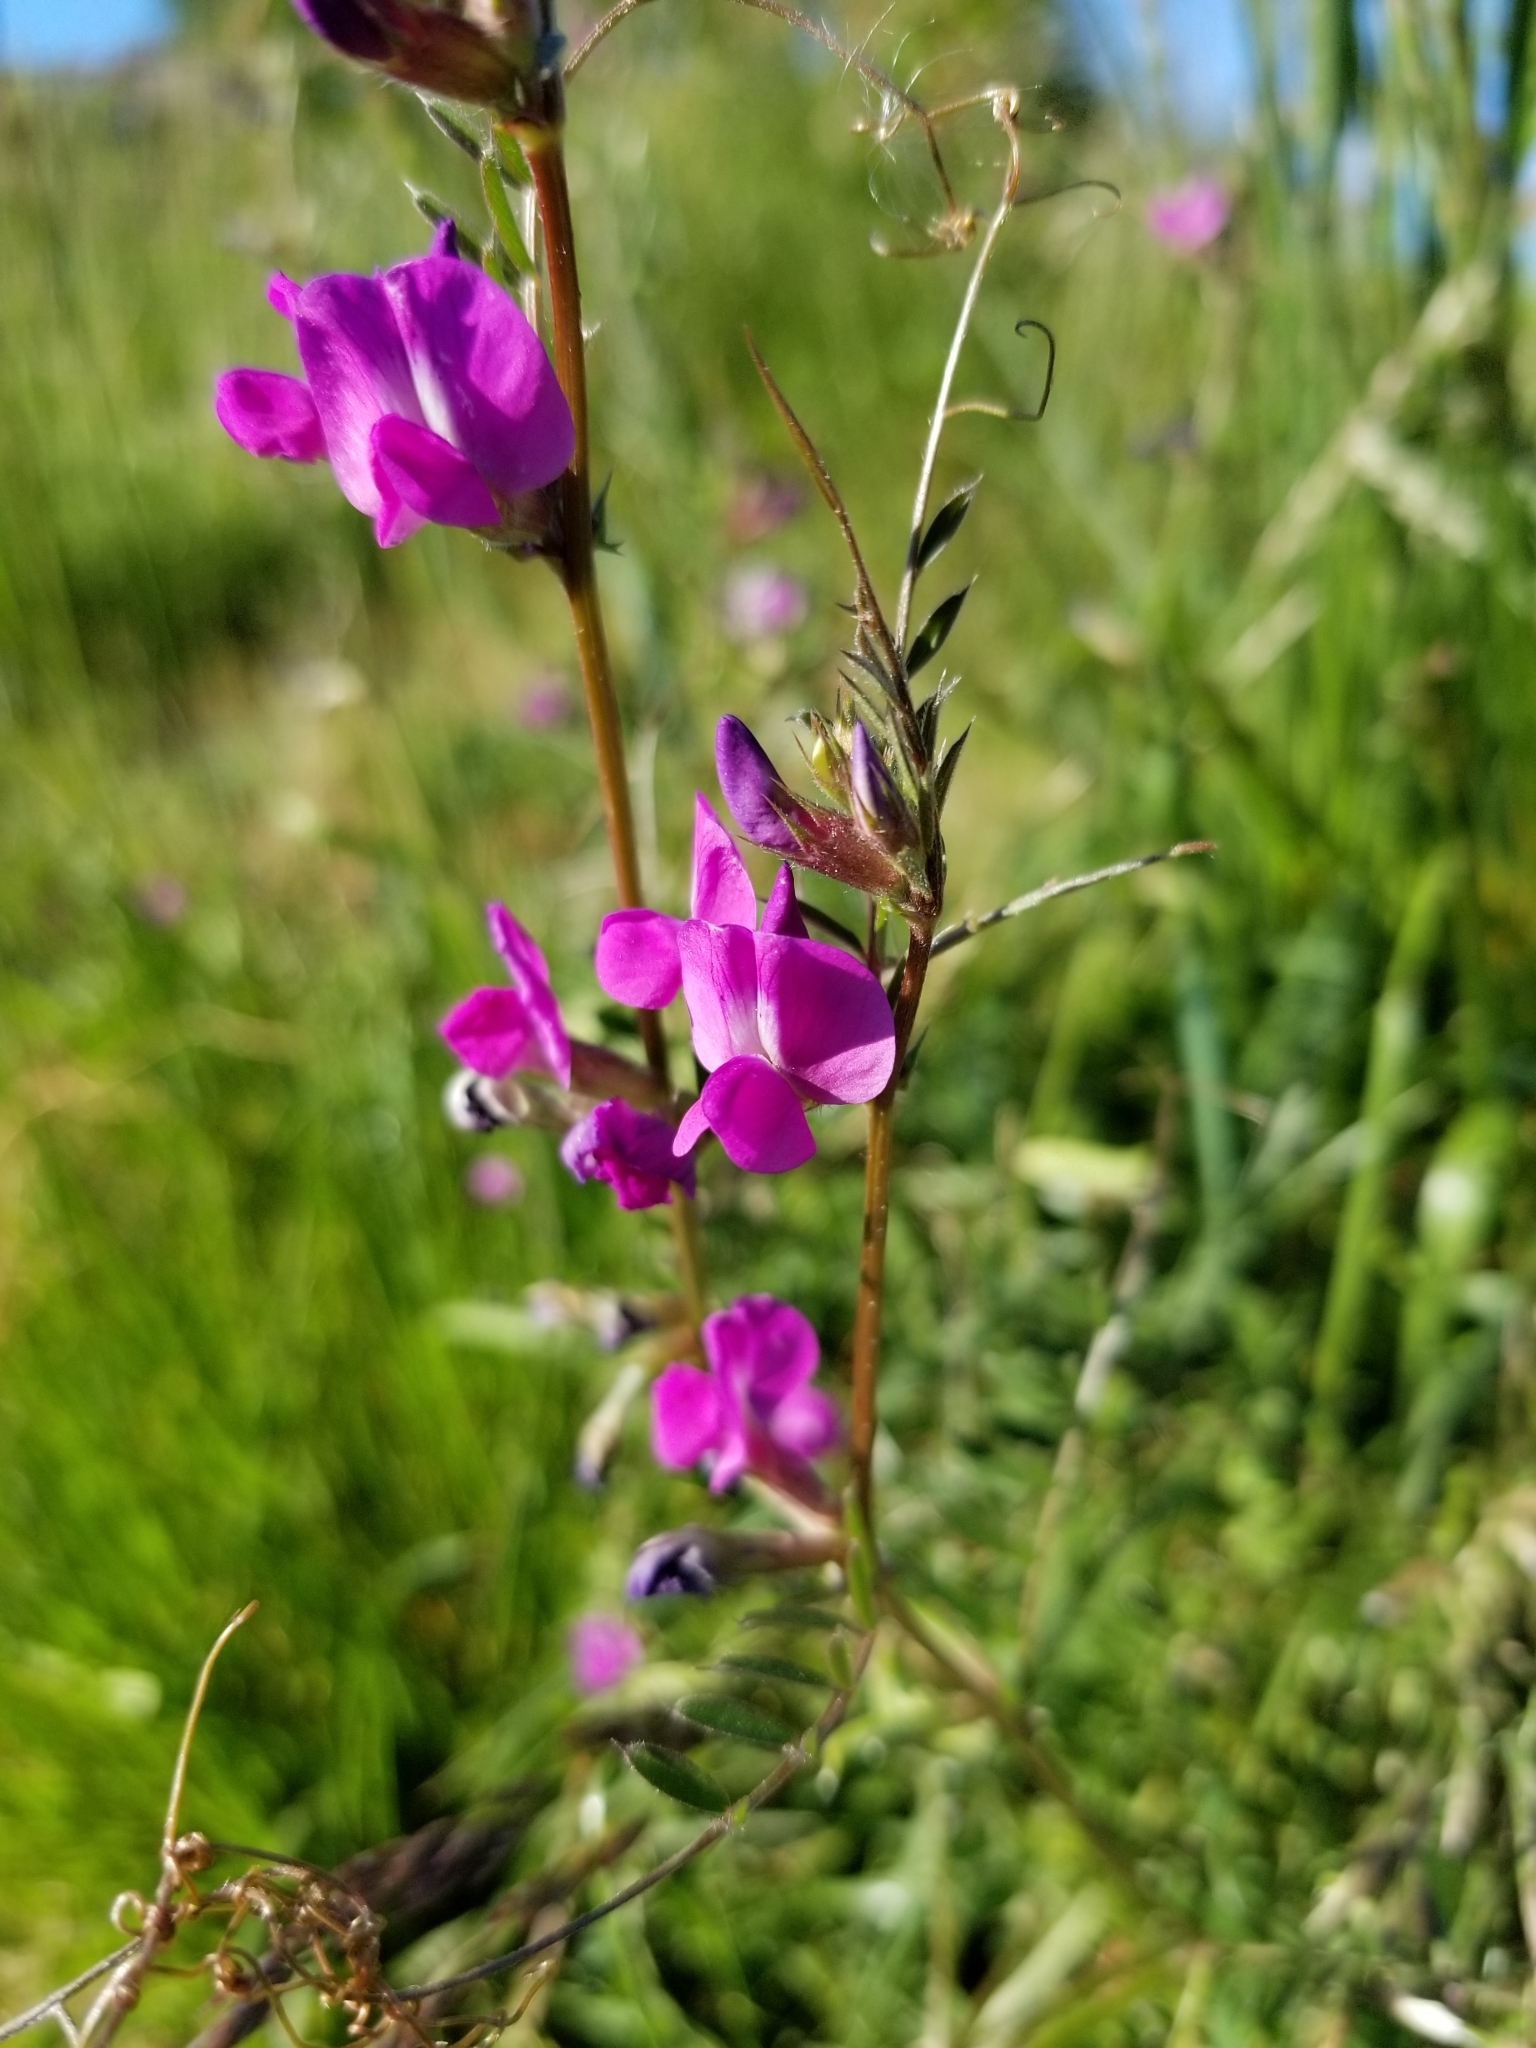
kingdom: Plantae
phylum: Tracheophyta
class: Magnoliopsida
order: Fabales
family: Fabaceae
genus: Vicia
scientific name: Vicia sativa
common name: Garden vetch
